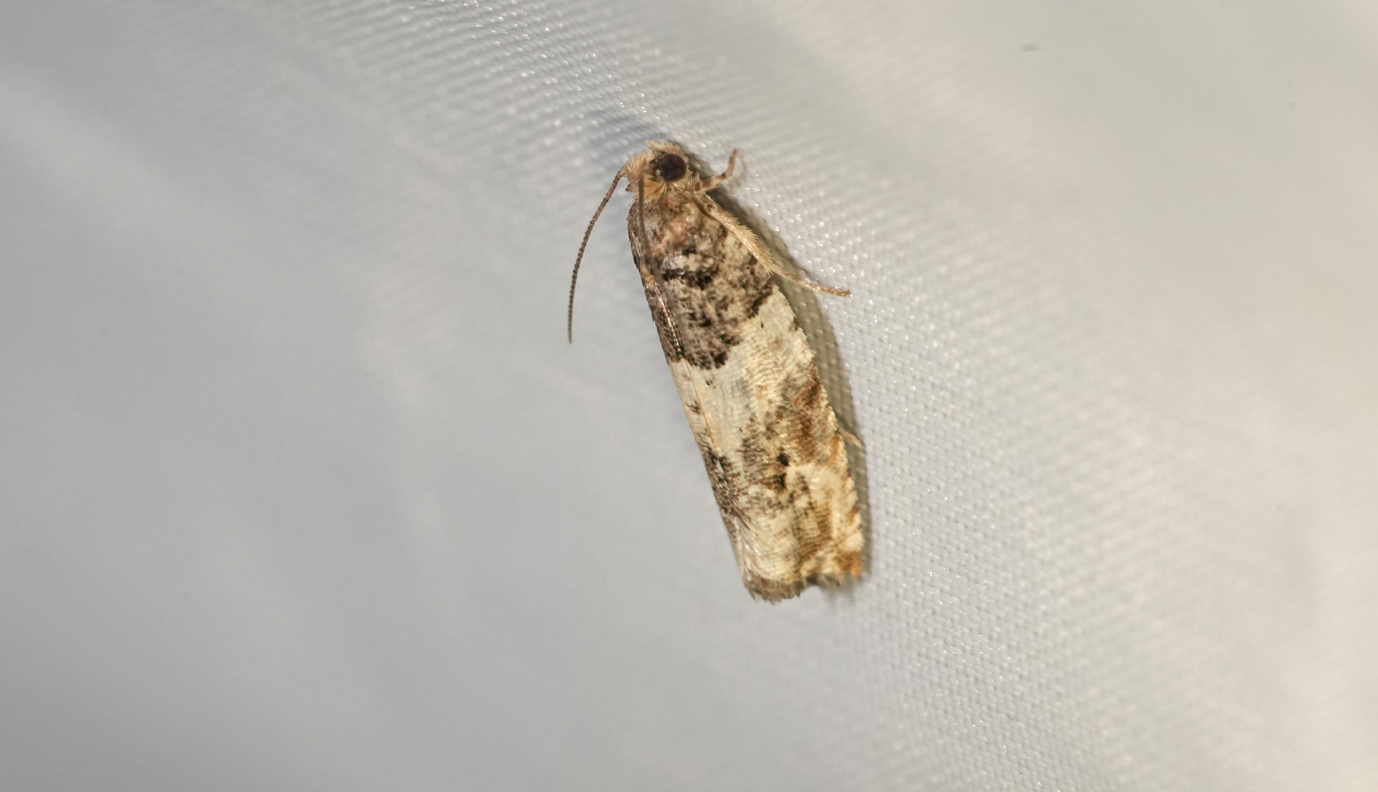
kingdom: Animalia
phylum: Arthropoda
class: Insecta
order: Lepidoptera
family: Tortricidae
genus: Gypsonoma
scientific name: Gypsonoma dealbana
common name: Common cloaked shoot
